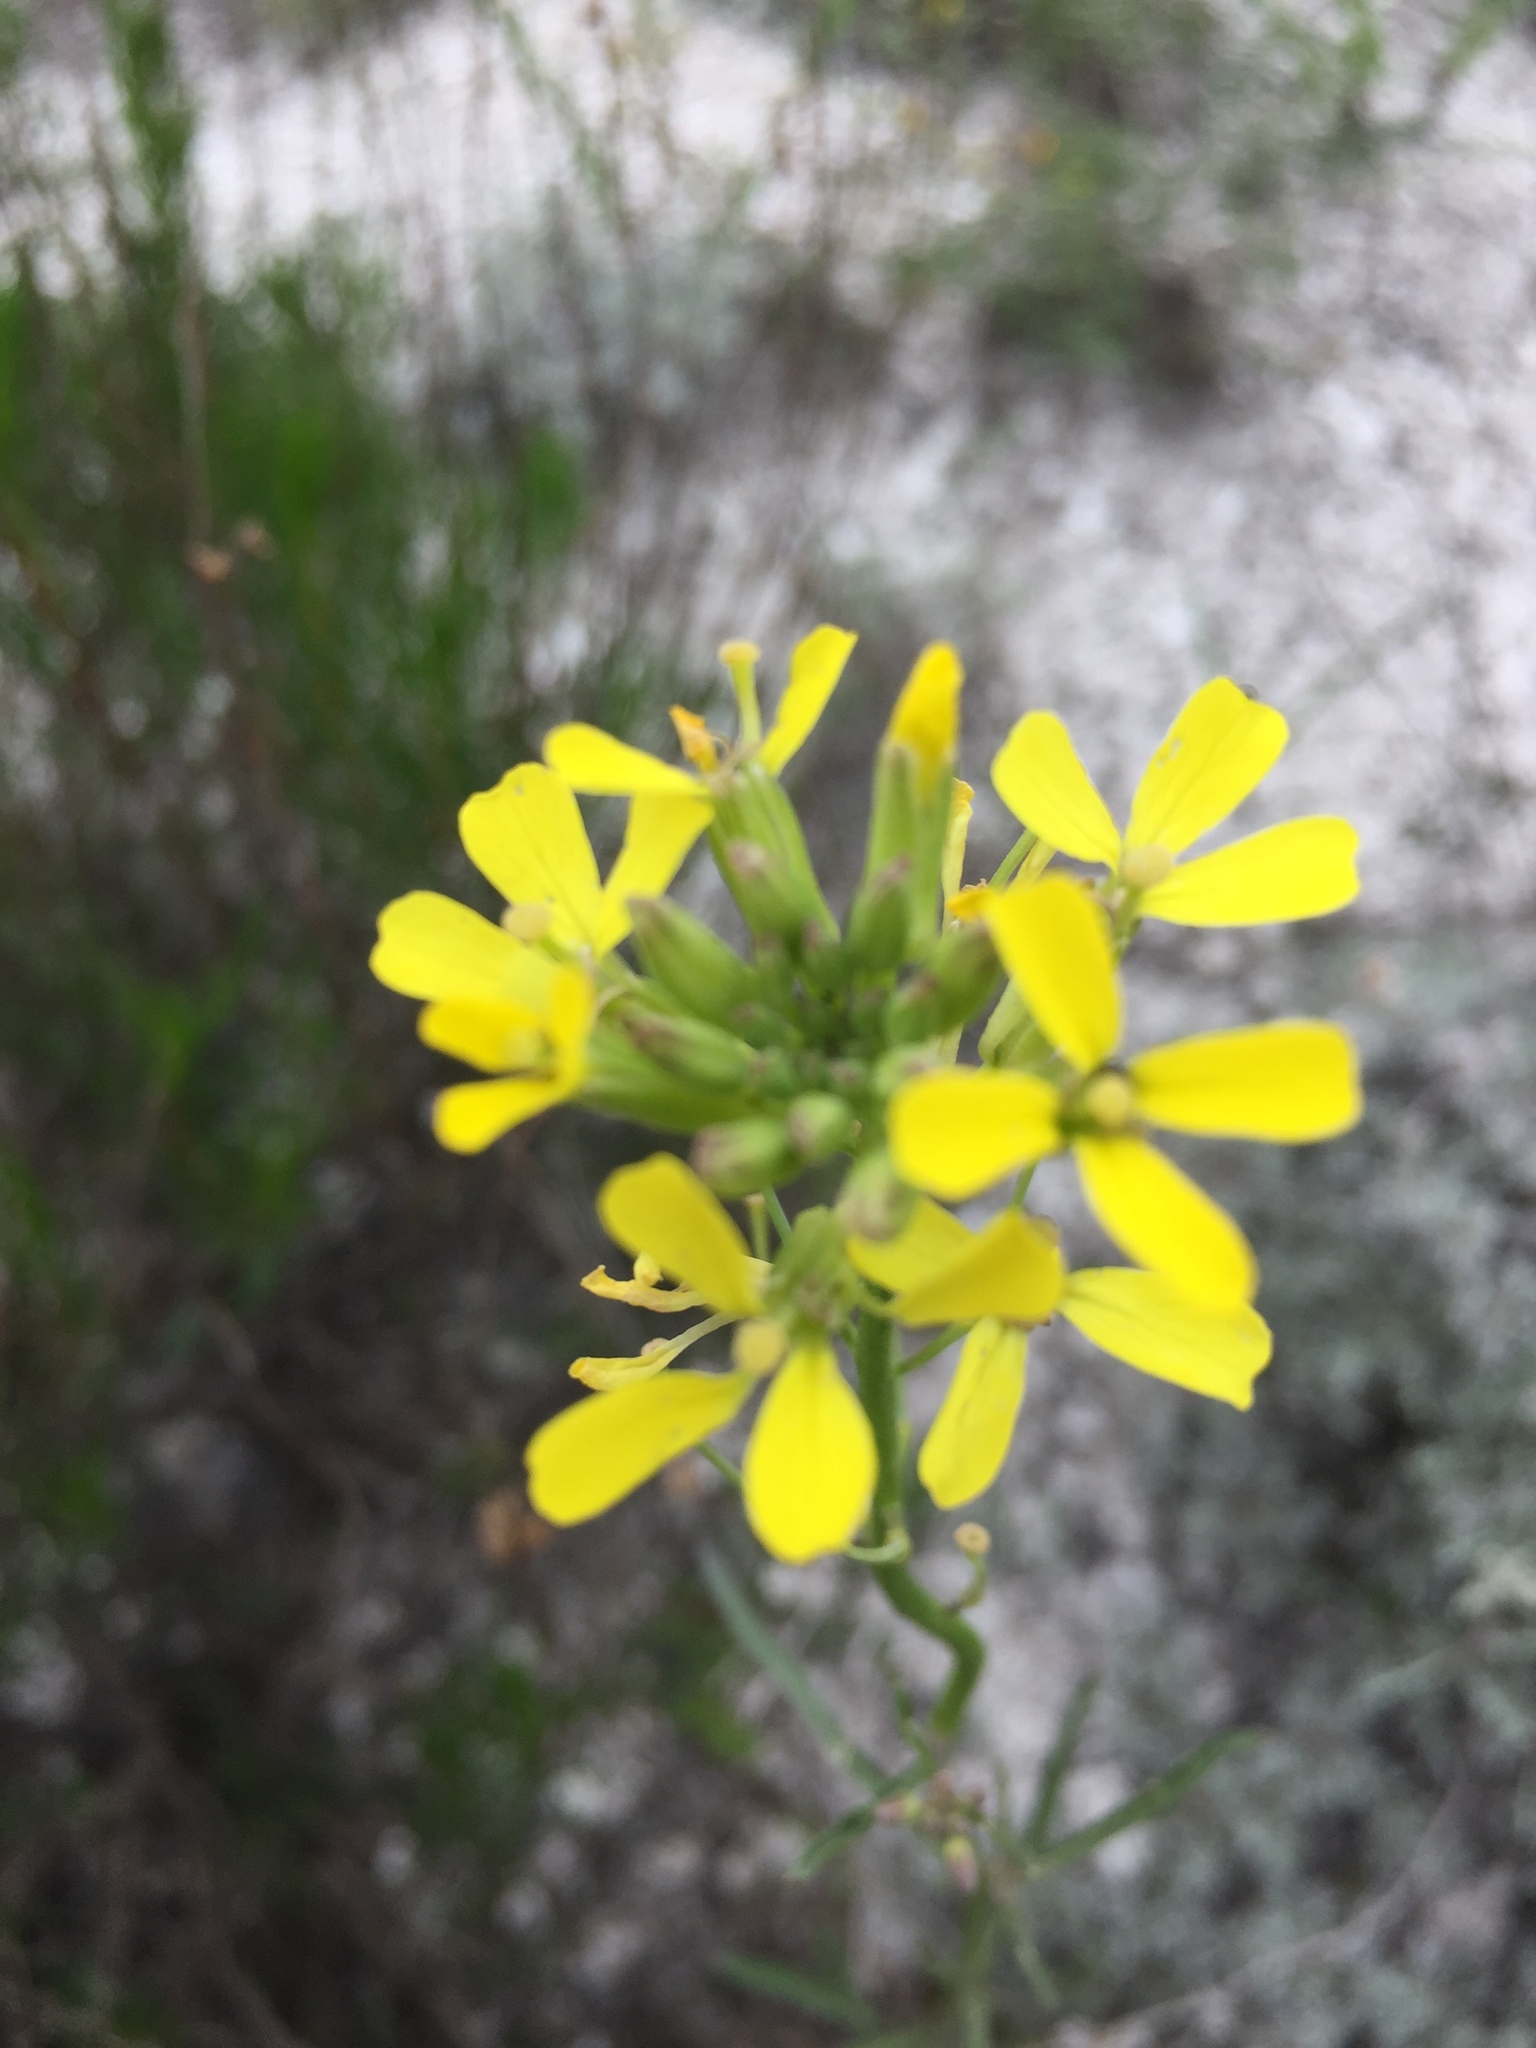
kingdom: Plantae
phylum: Tracheophyta
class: Magnoliopsida
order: Brassicales
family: Brassicaceae
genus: Erysimum
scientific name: Erysimum diffusum
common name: Diffuse wallflower
